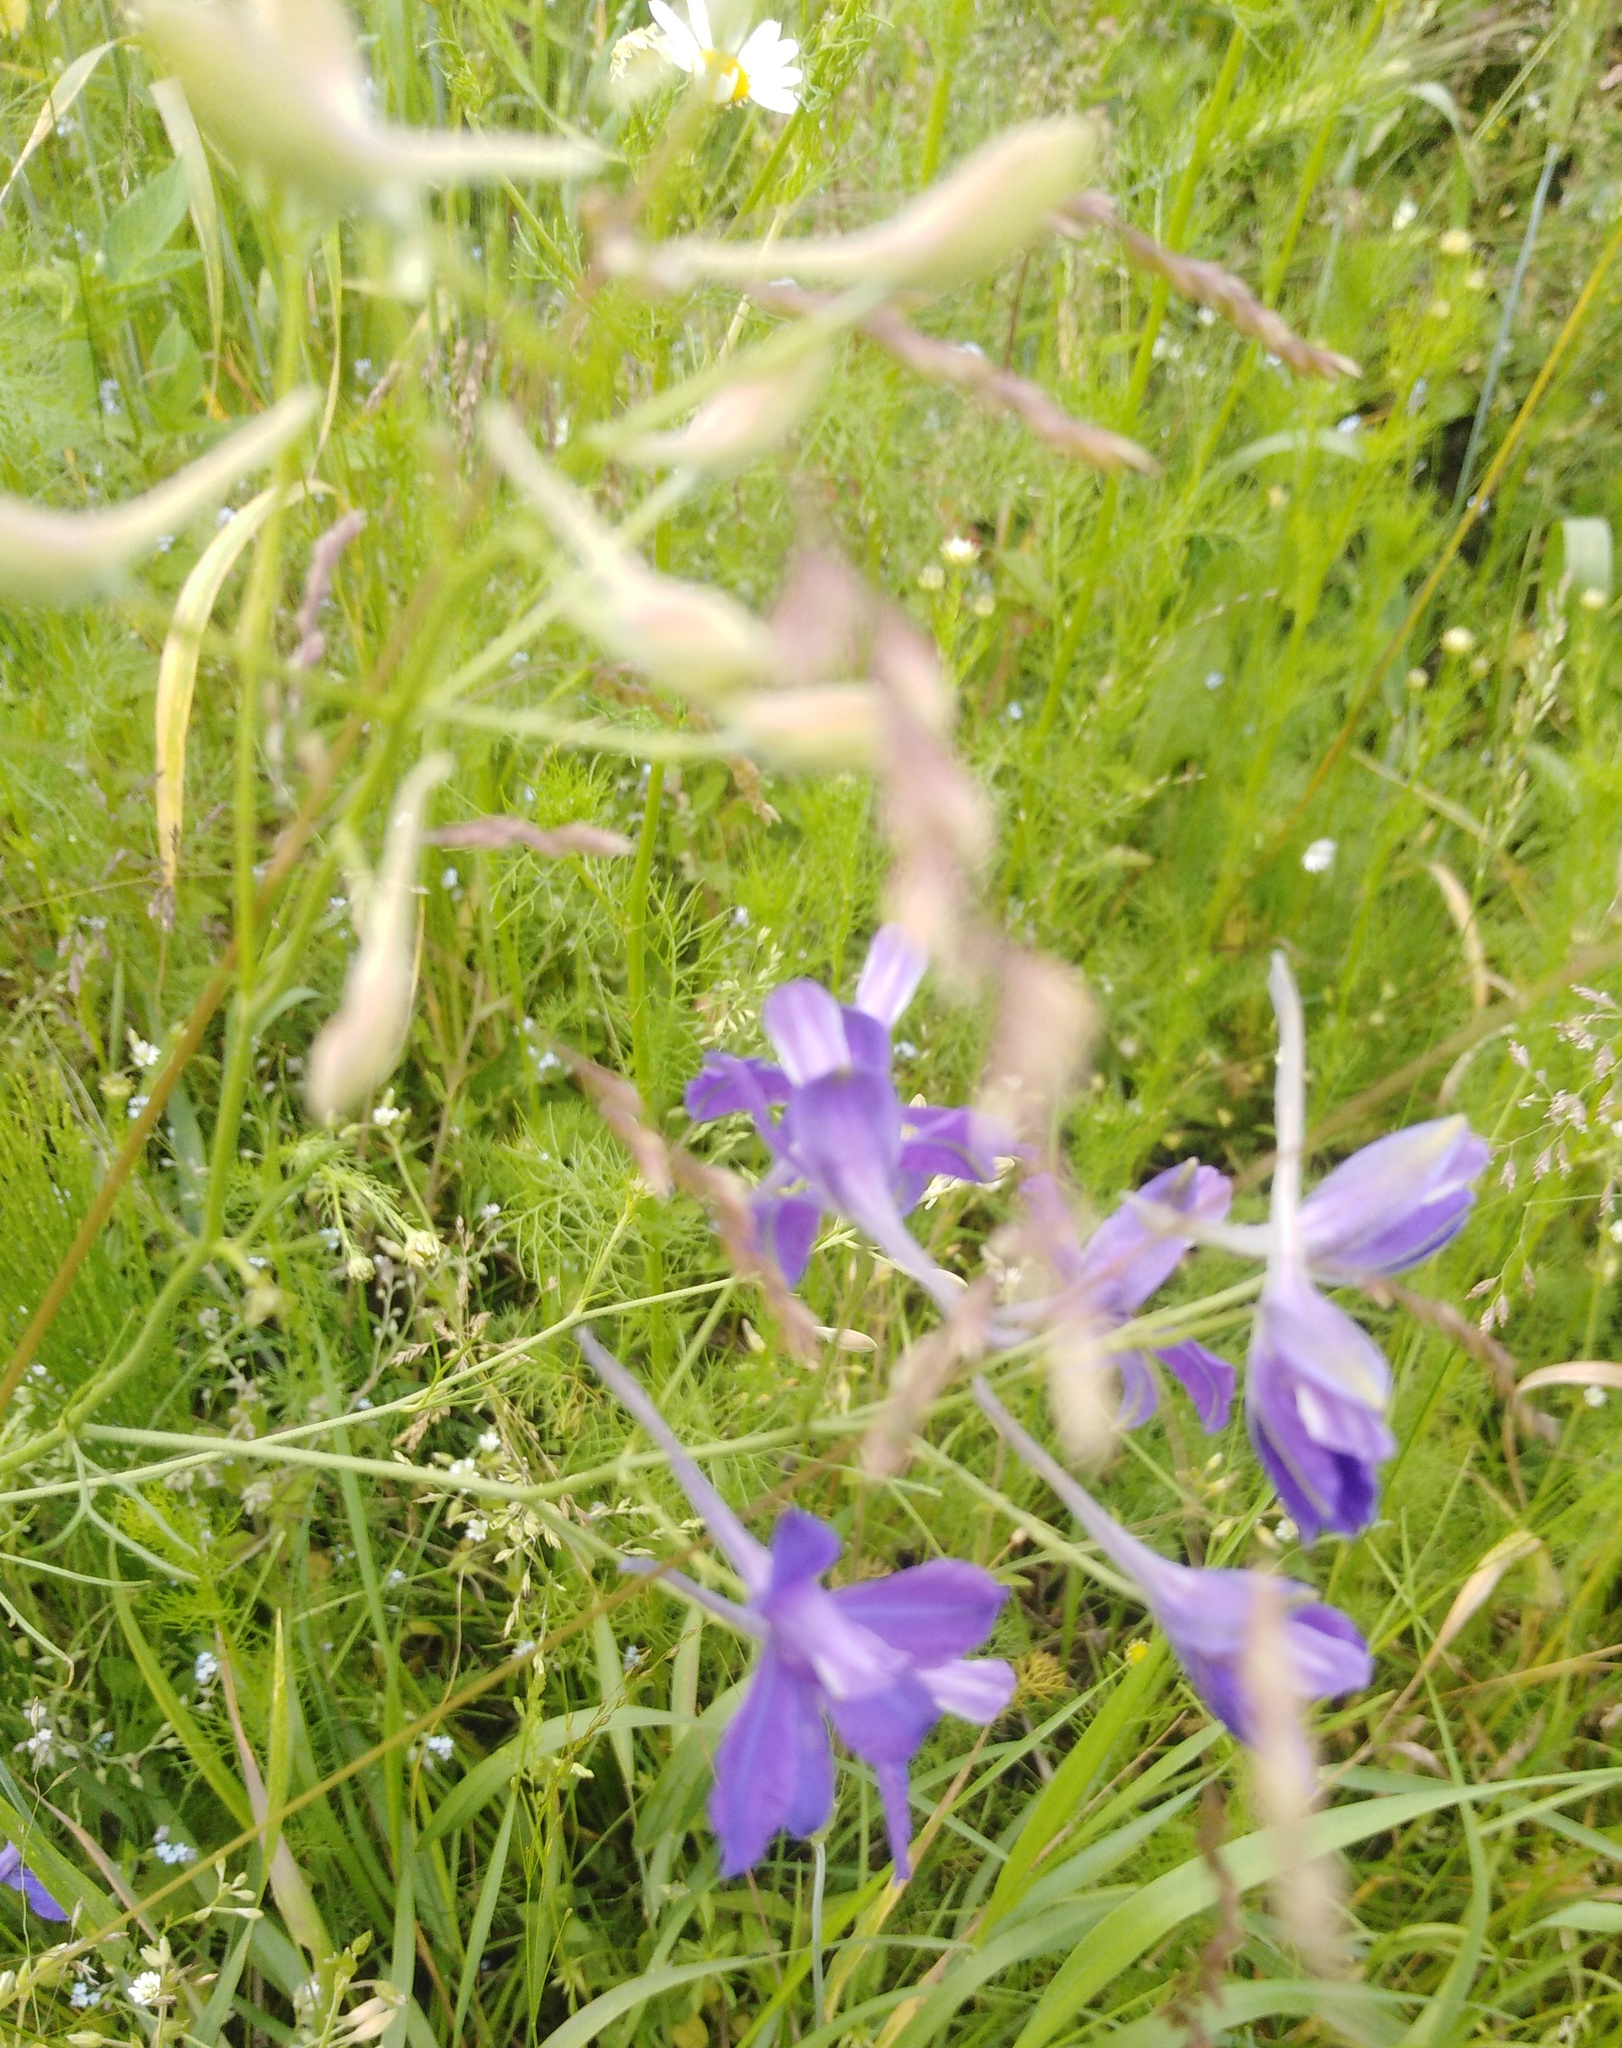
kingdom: Plantae
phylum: Tracheophyta
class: Magnoliopsida
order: Ranunculales
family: Ranunculaceae
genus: Delphinium
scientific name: Delphinium consolida
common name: Branching larkspur
